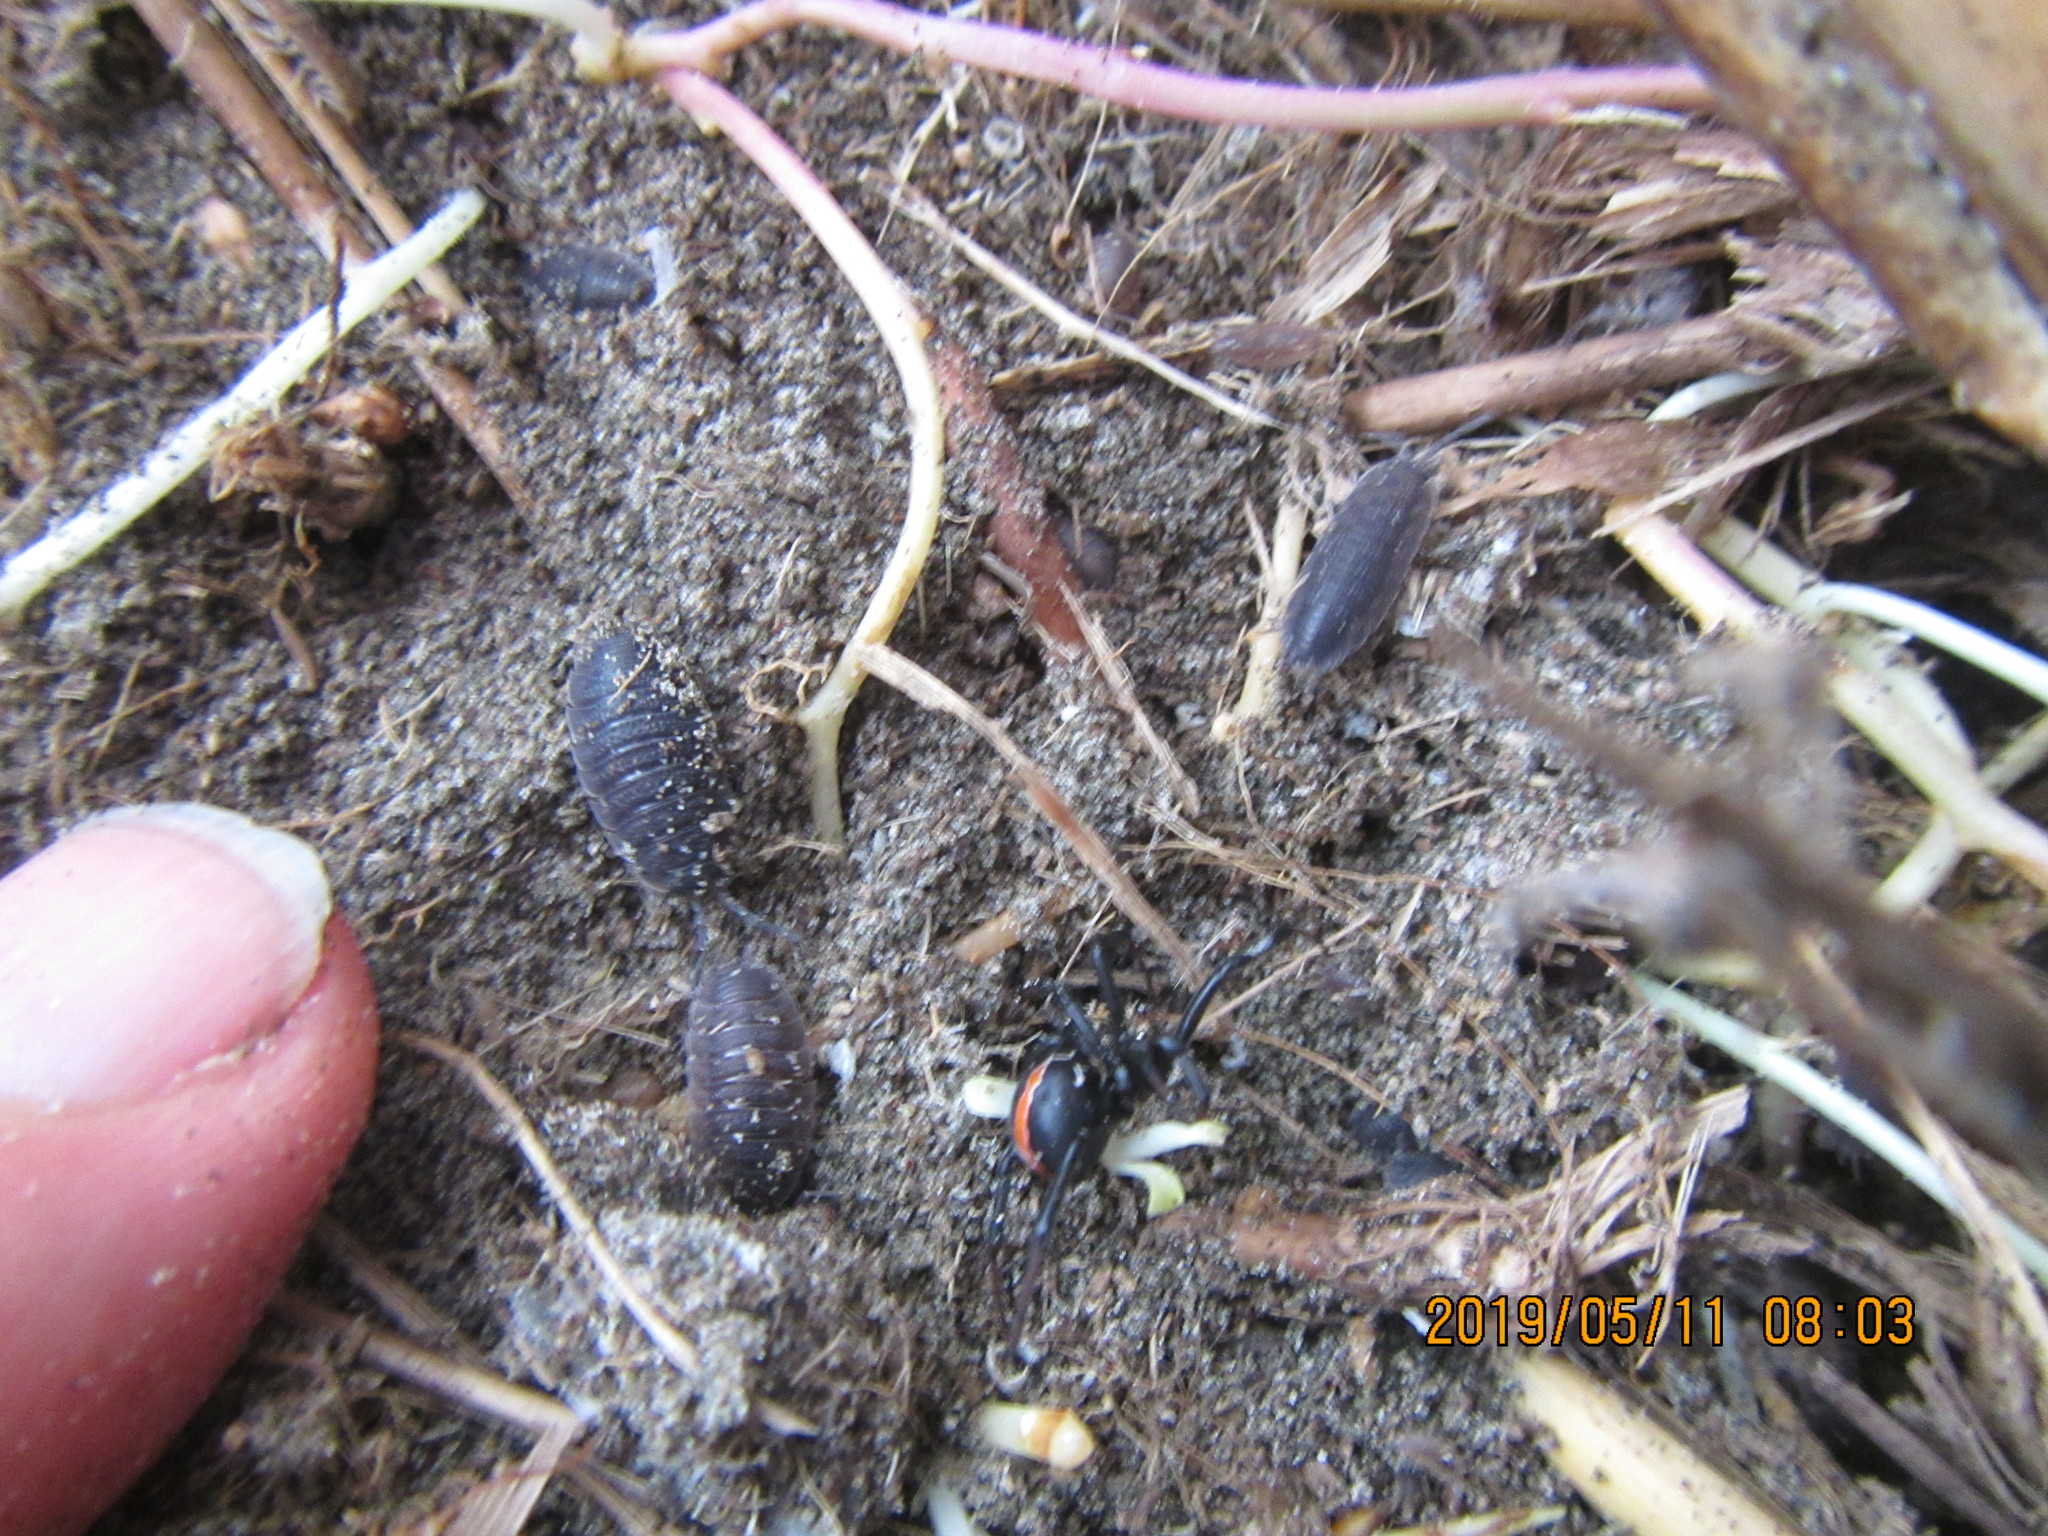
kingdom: Animalia
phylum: Arthropoda
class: Arachnida
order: Araneae
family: Theridiidae
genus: Latrodectus
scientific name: Latrodectus katipo
